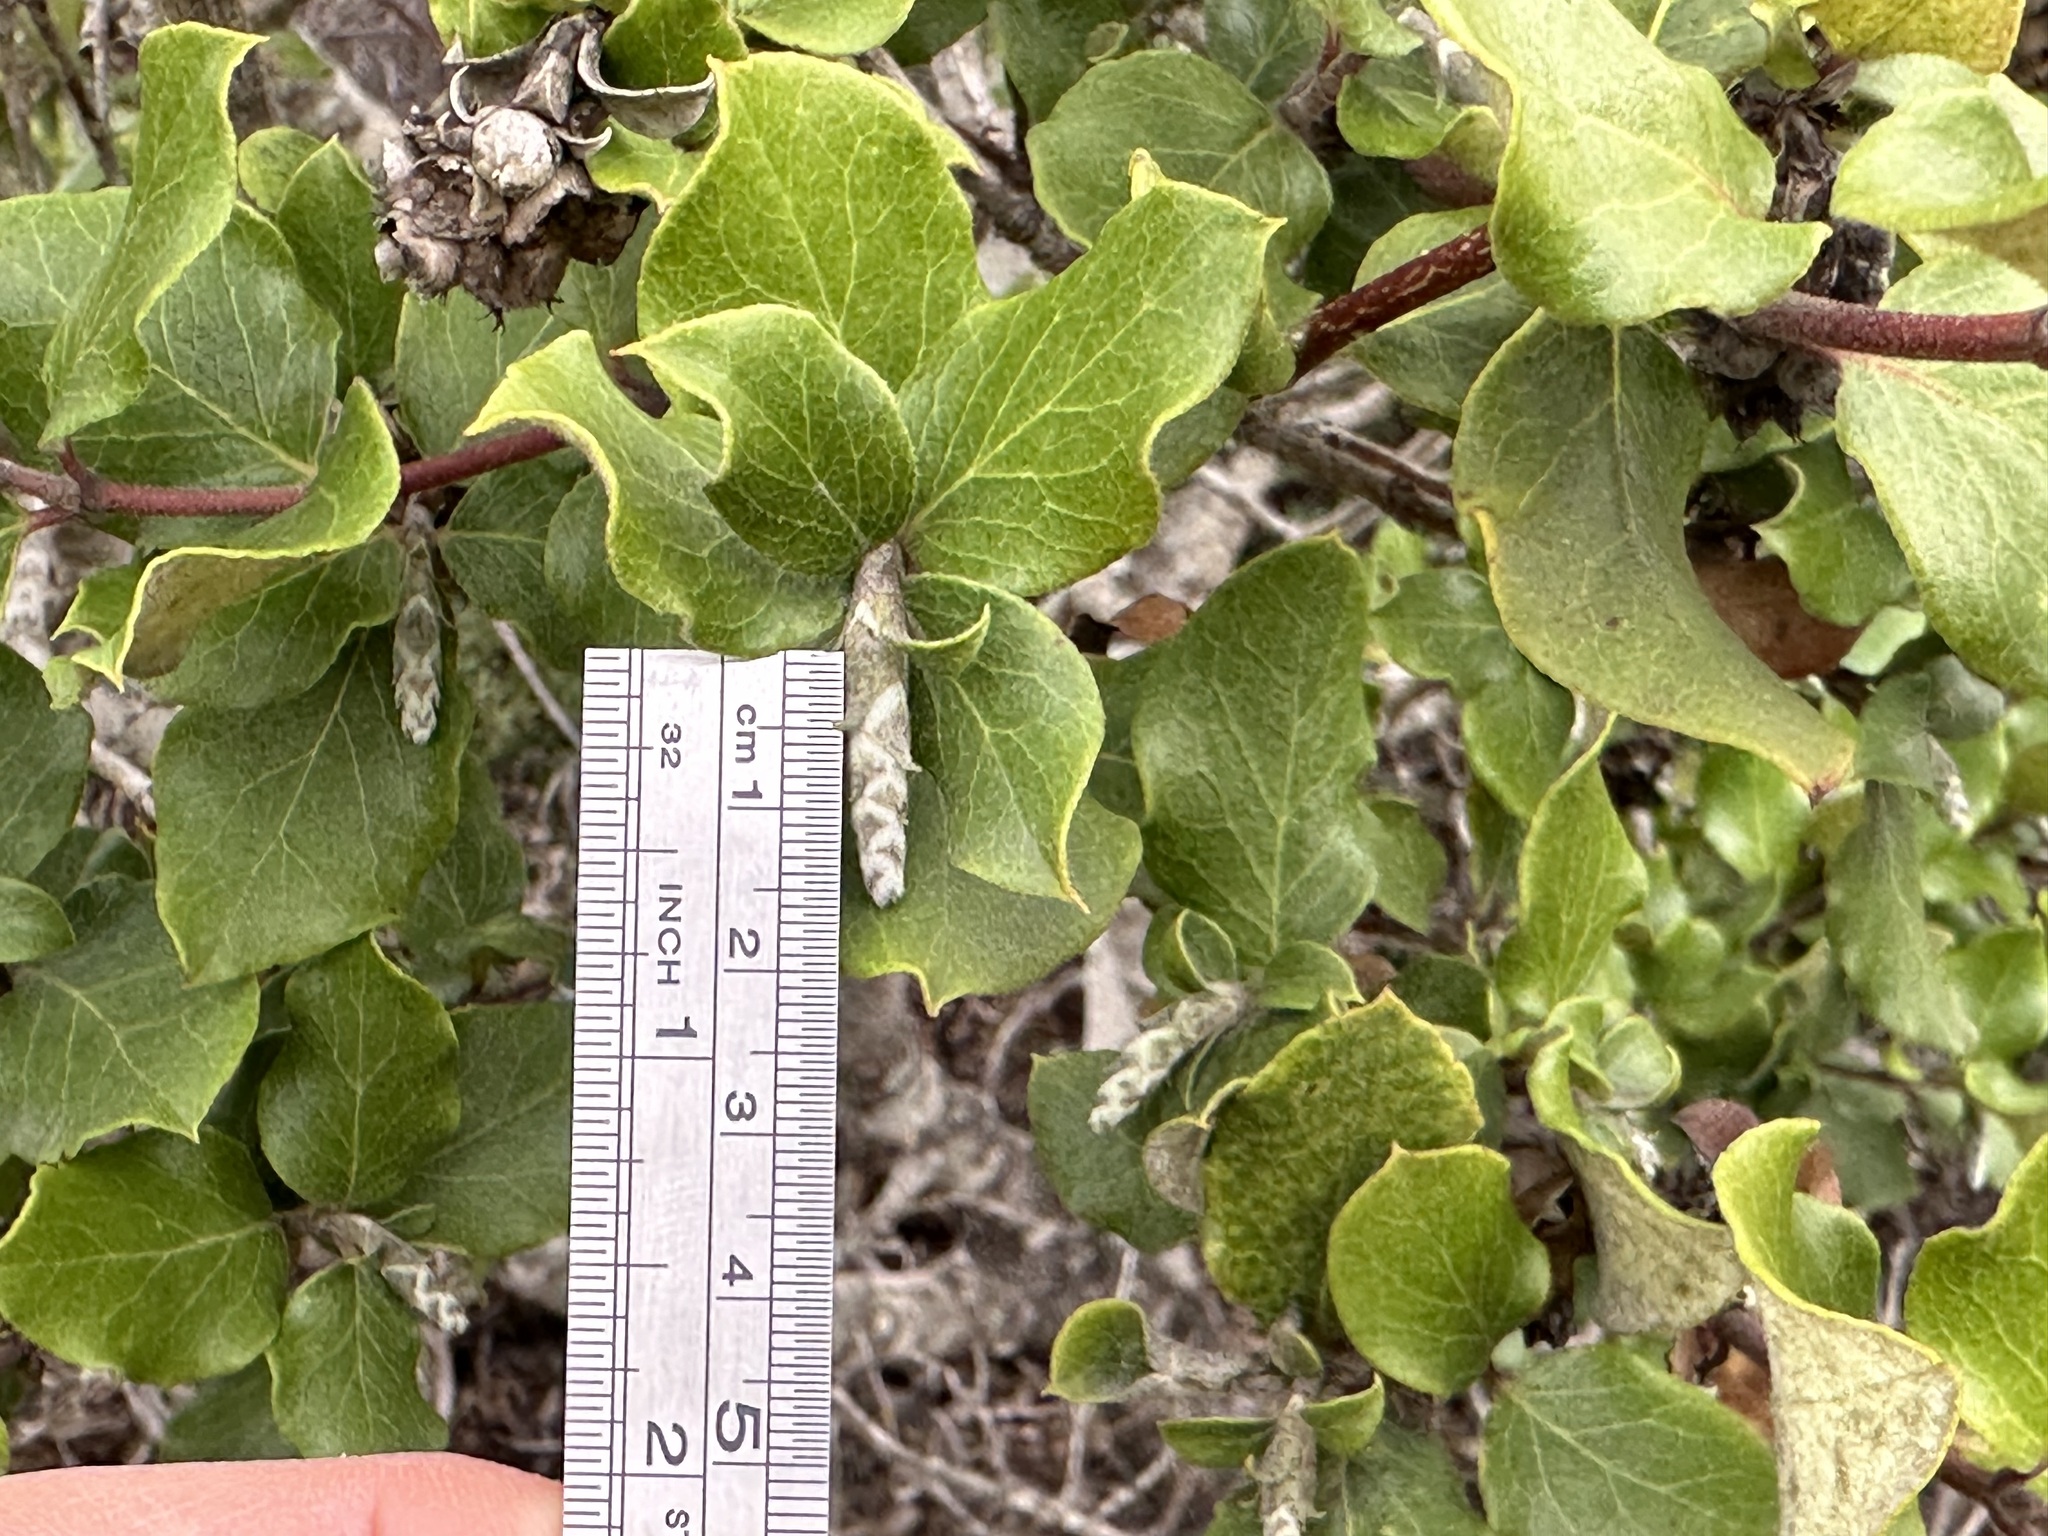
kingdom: Plantae
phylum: Tracheophyta
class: Magnoliopsida
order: Garryales
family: Garryaceae
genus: Garrya
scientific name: Garrya elliptica
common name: Silk-tassel
